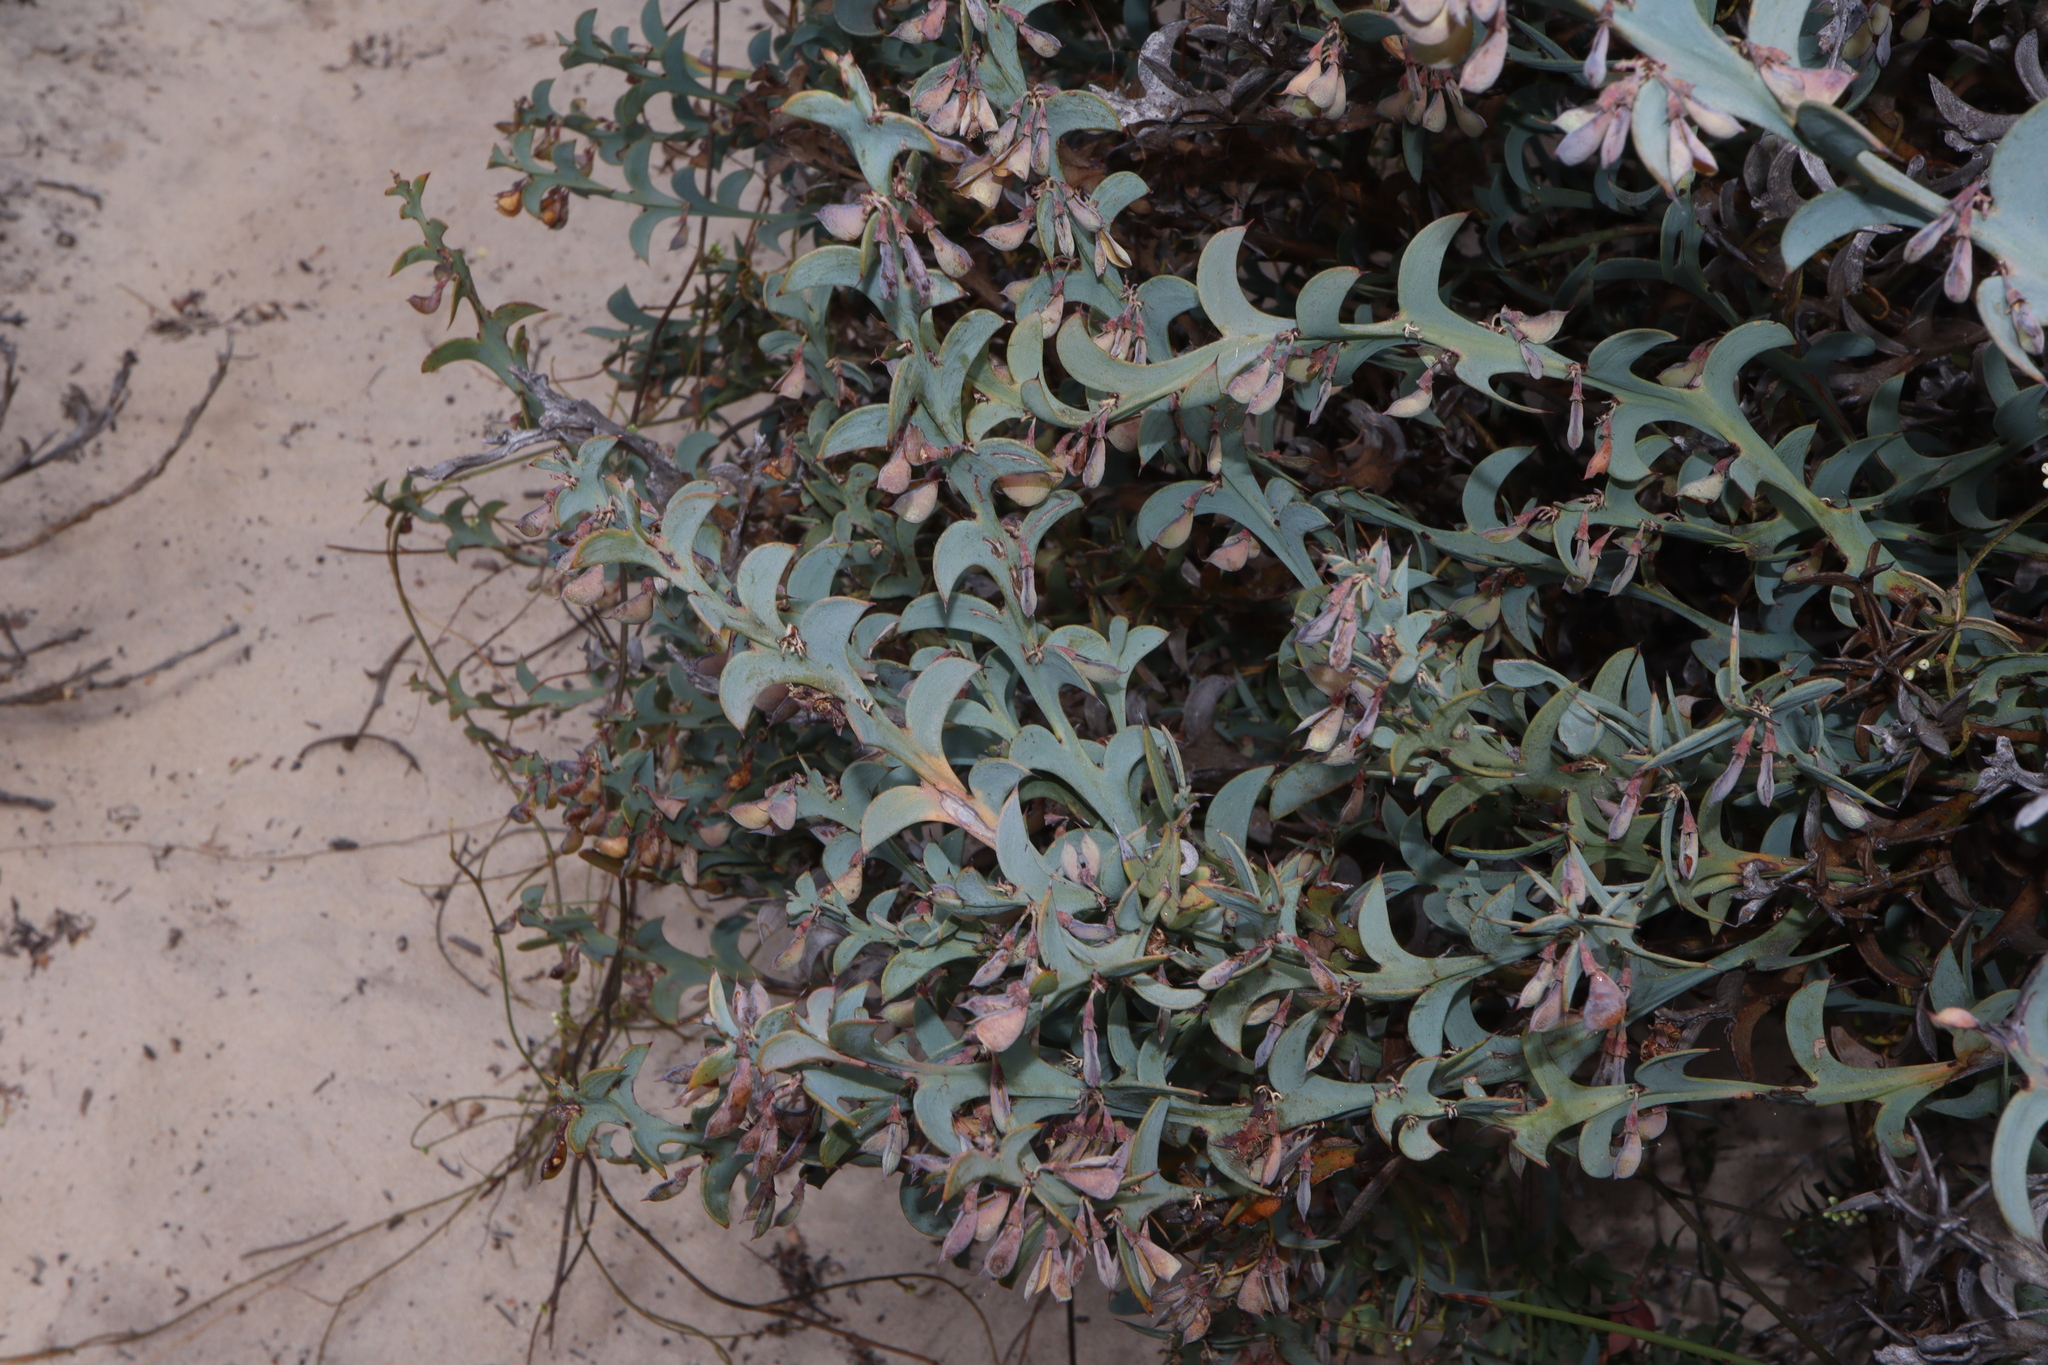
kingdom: Plantae
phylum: Tracheophyta
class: Magnoliopsida
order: Fabales
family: Fabaceae
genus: Daviesia
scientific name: Daviesia dilatata
